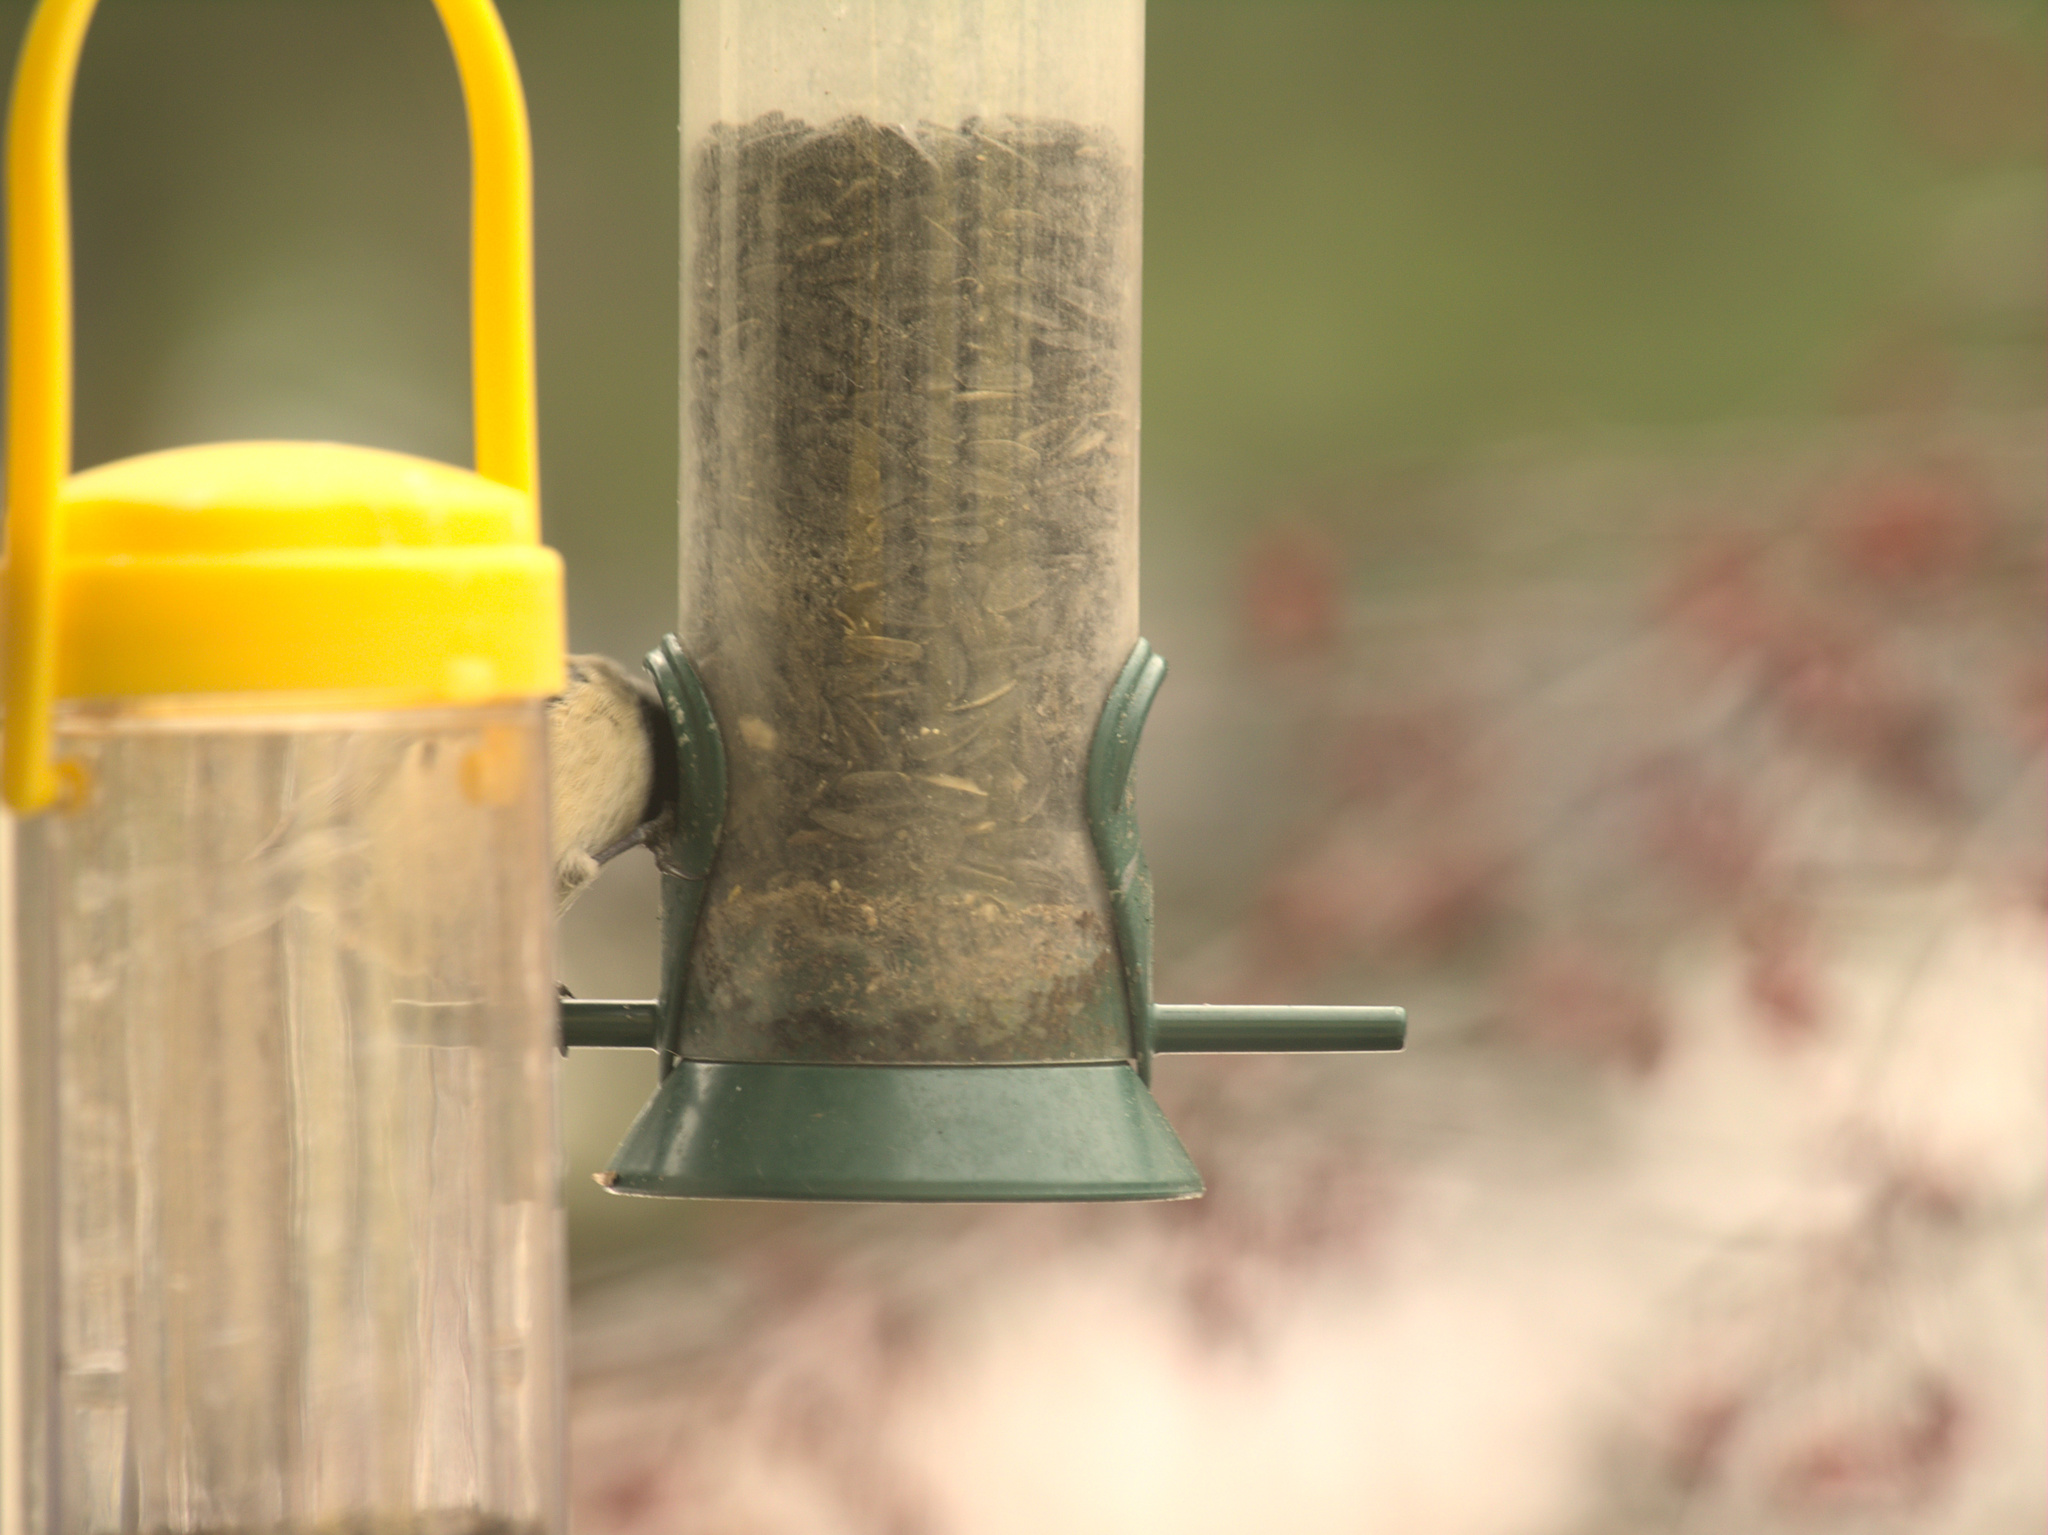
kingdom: Animalia
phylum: Chordata
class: Aves
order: Passeriformes
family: Paridae
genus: Poecile
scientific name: Poecile atricapillus
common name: Black-capped chickadee
